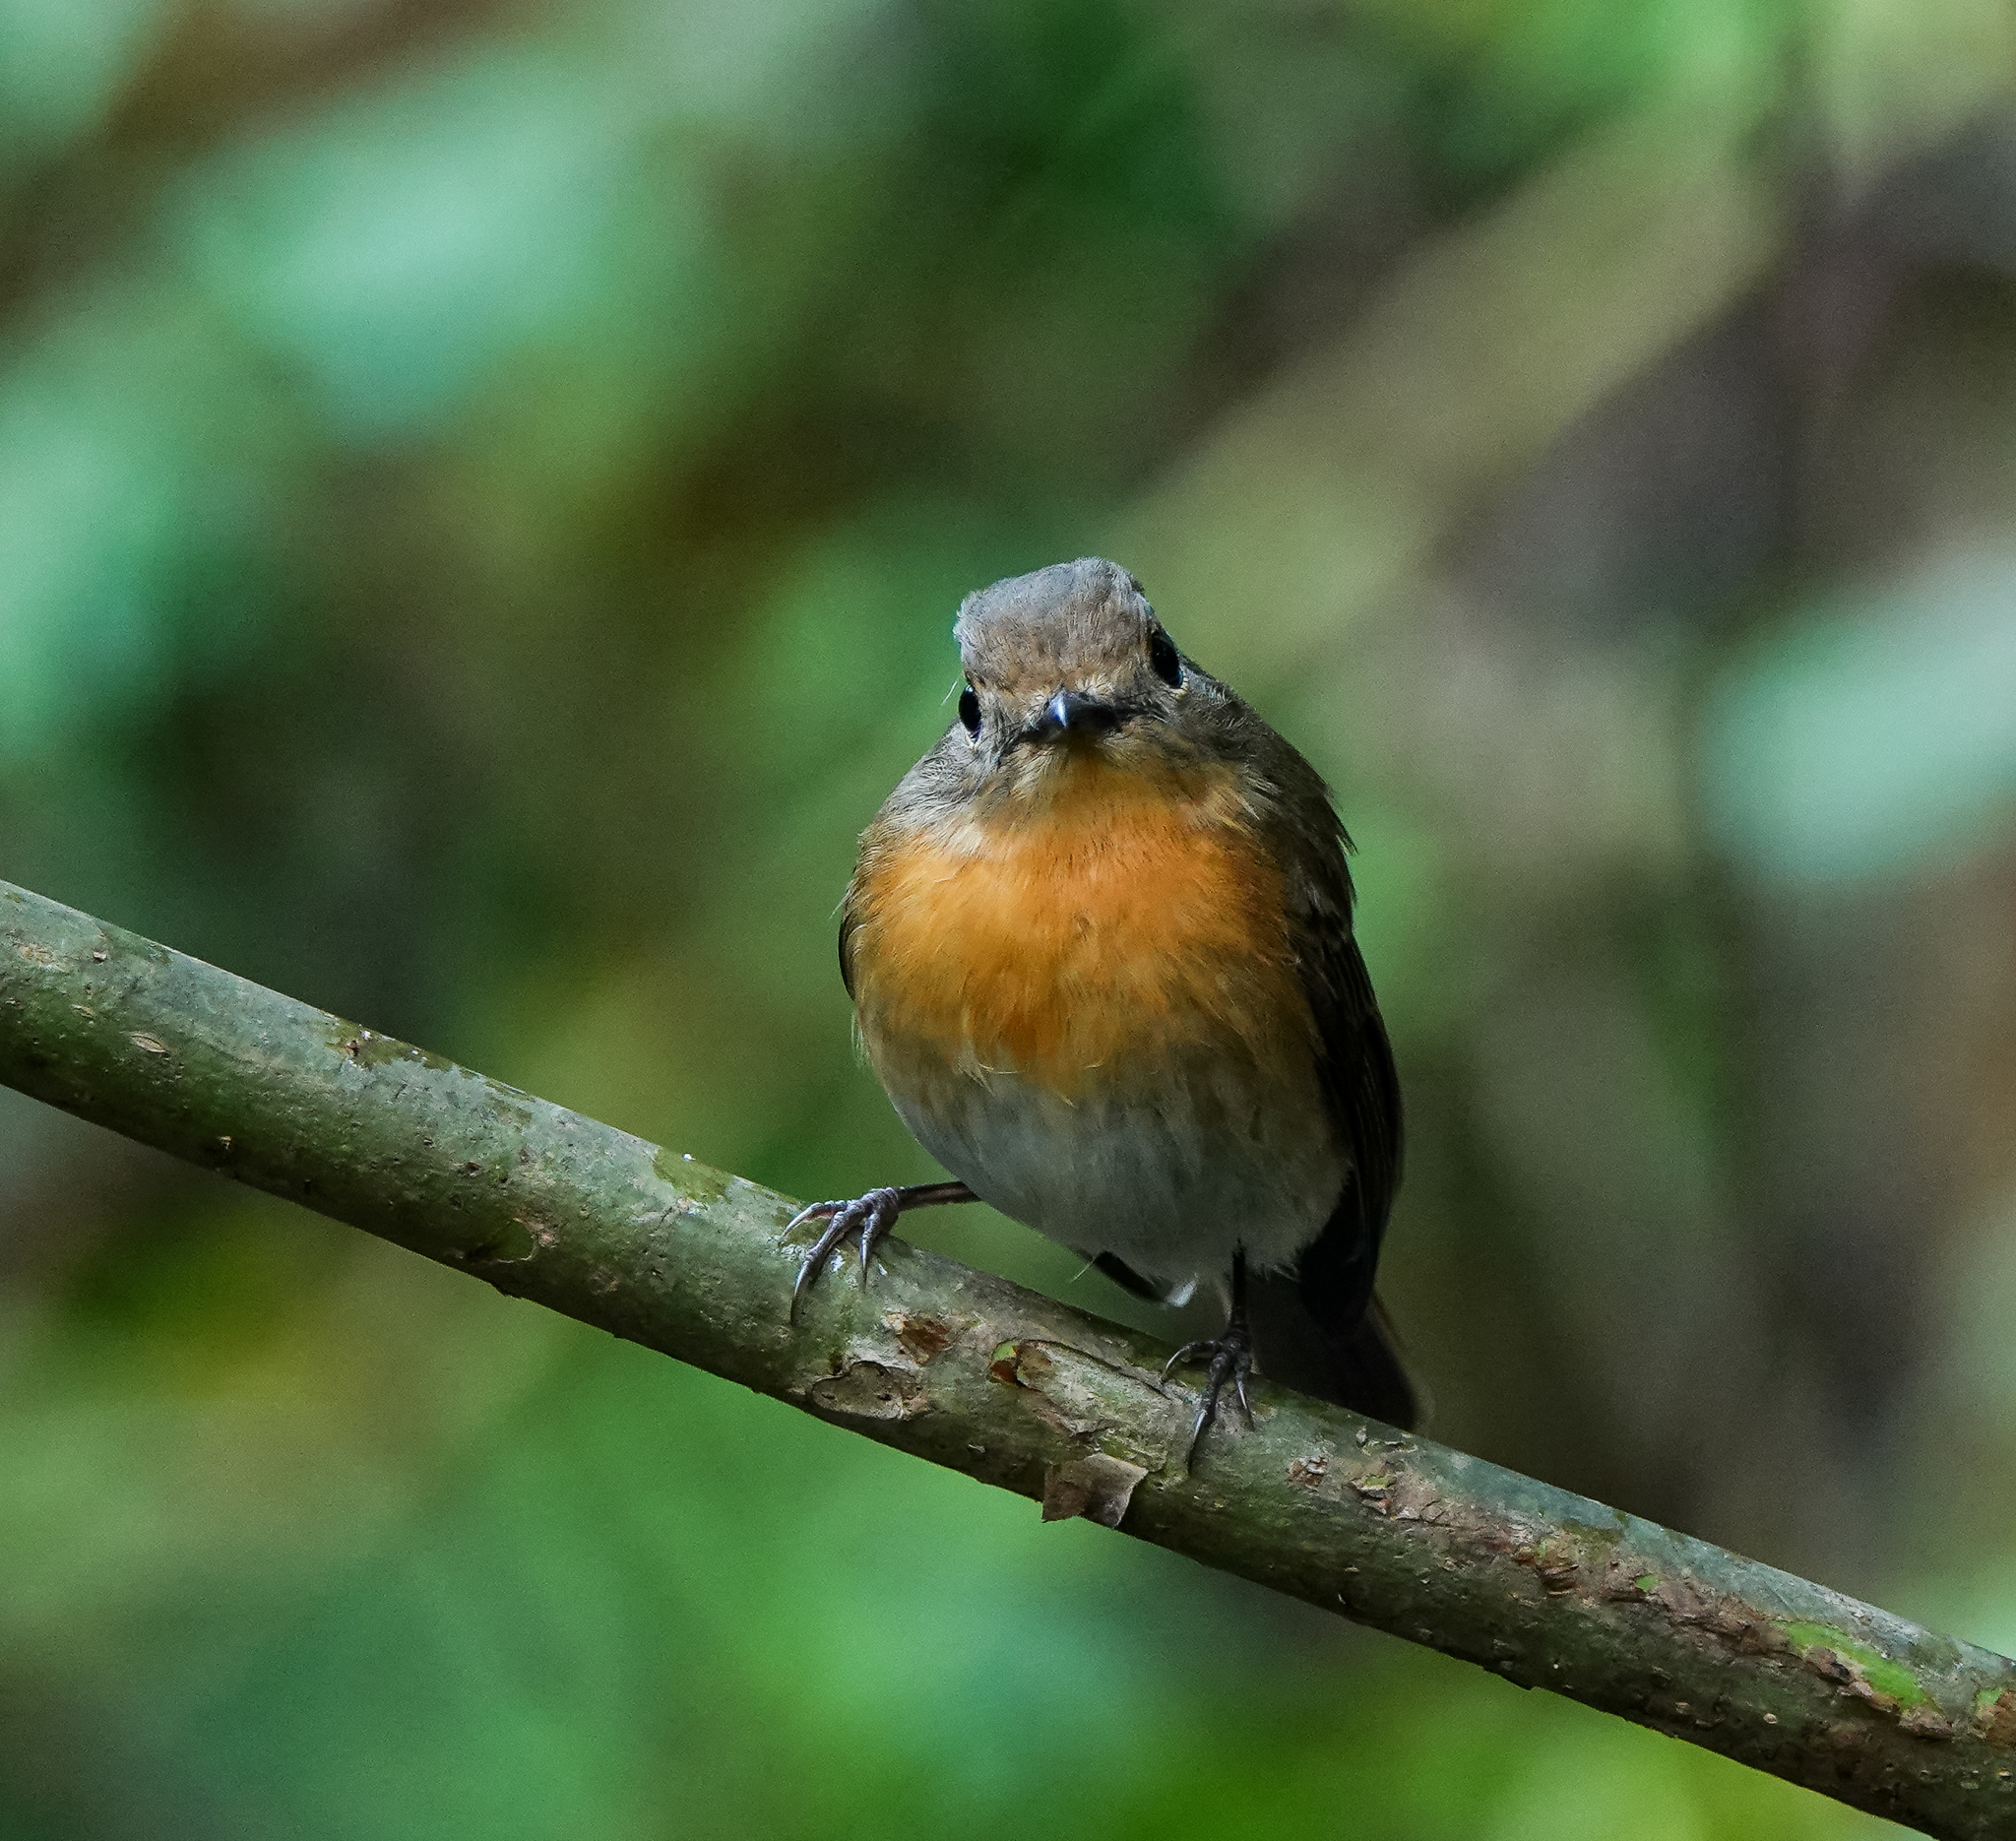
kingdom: Animalia
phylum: Chordata
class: Aves
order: Passeriformes
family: Muscicapidae
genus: Cyornis
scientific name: Cyornis rubeculoides
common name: Blue-throated blue flycatcher
